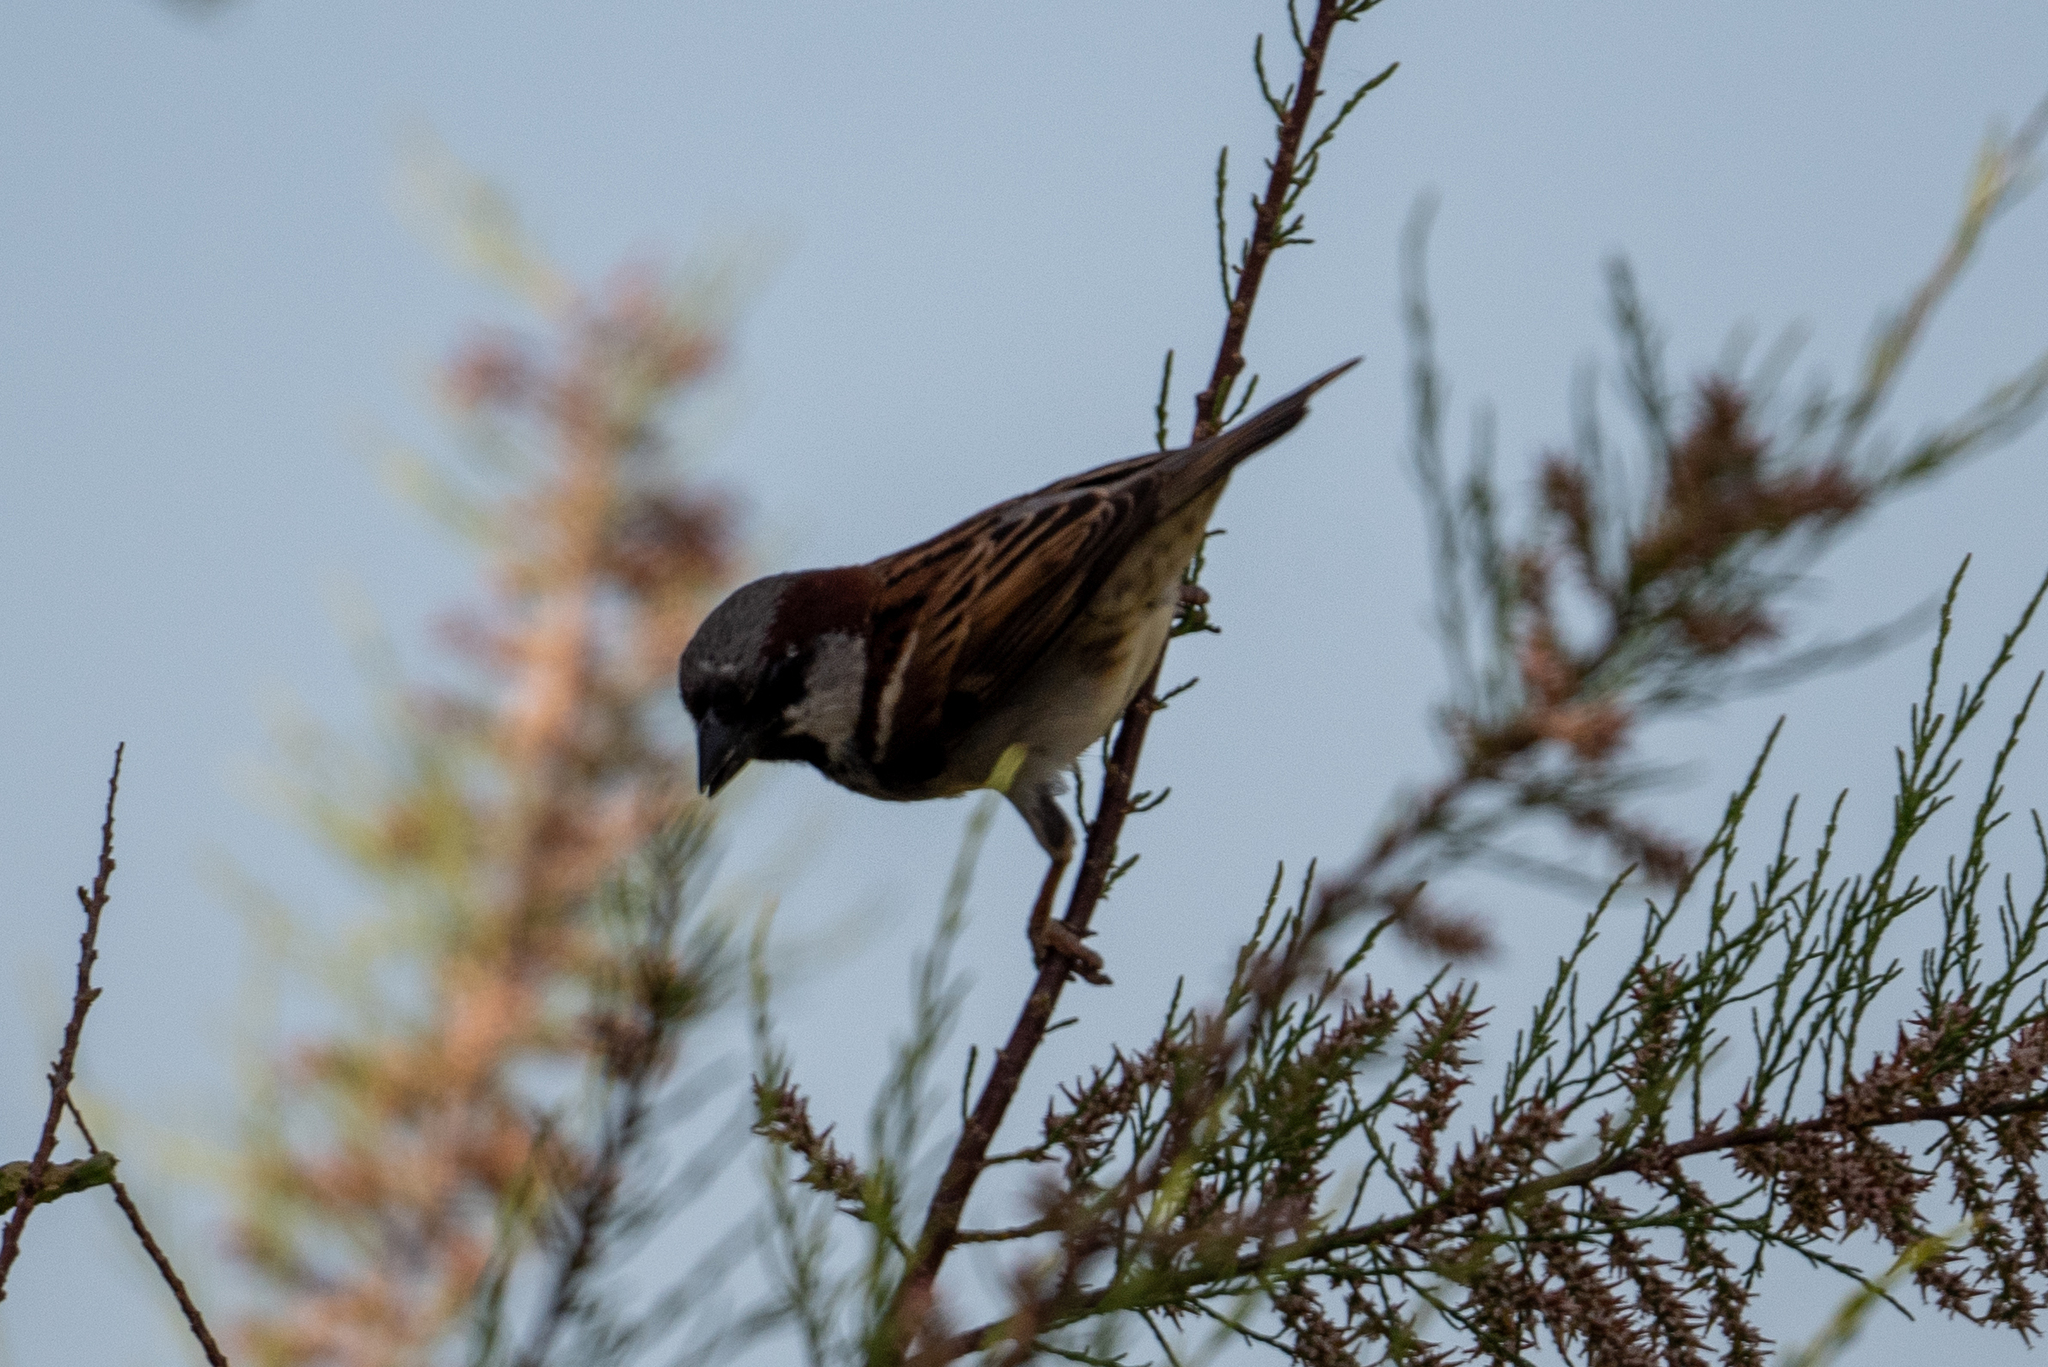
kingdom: Animalia
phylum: Chordata
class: Aves
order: Passeriformes
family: Passeridae
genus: Passer
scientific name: Passer domesticus
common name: House sparrow
